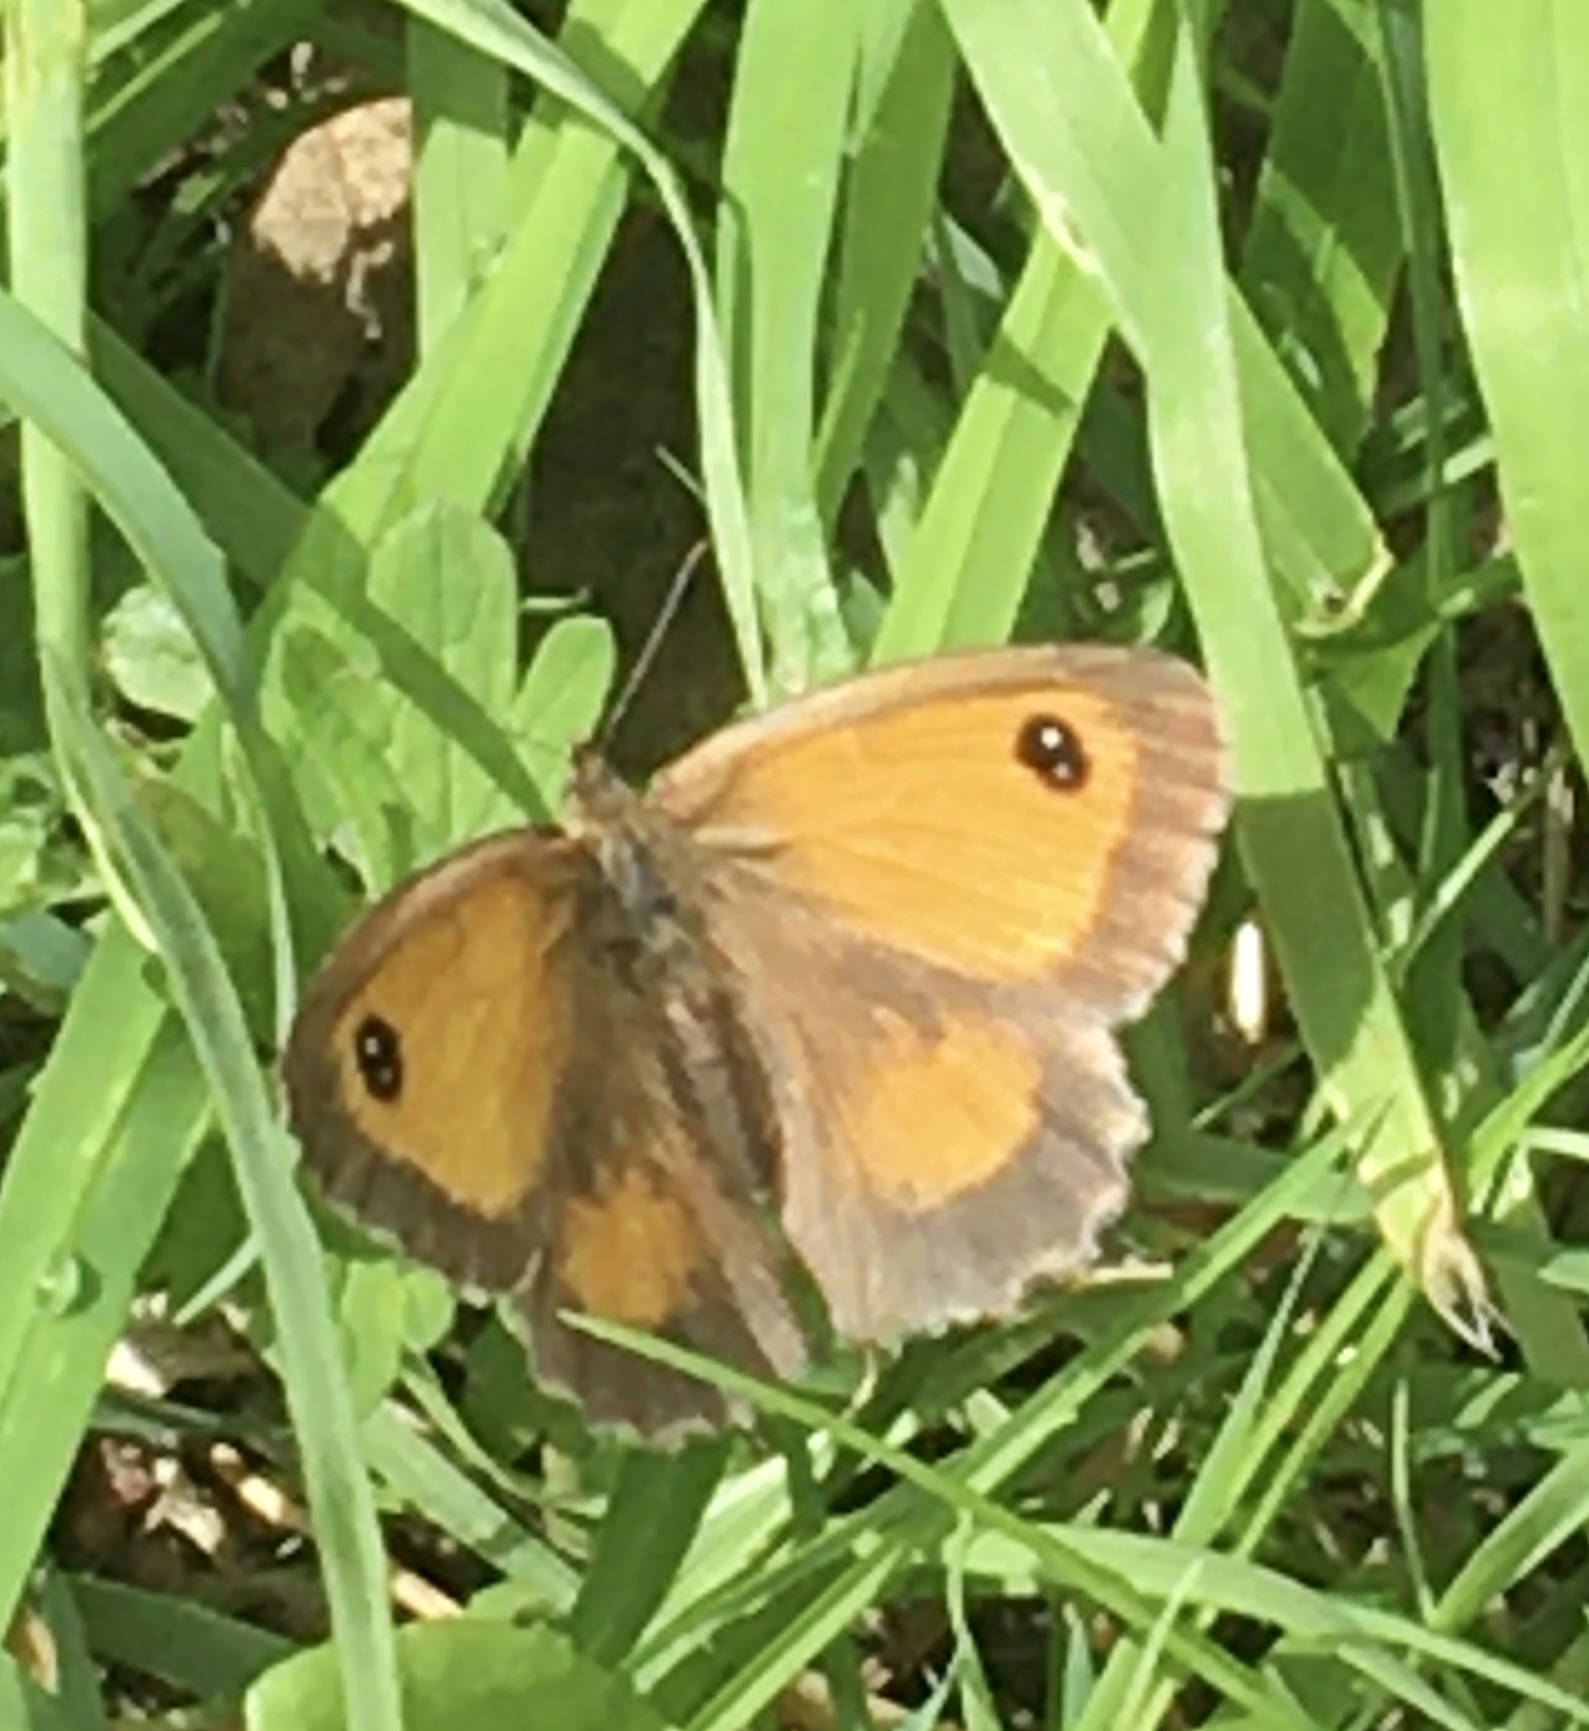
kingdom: Animalia
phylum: Arthropoda
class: Insecta
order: Lepidoptera
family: Nymphalidae
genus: Pyronia
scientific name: Pyronia tithonus
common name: Gatekeeper
